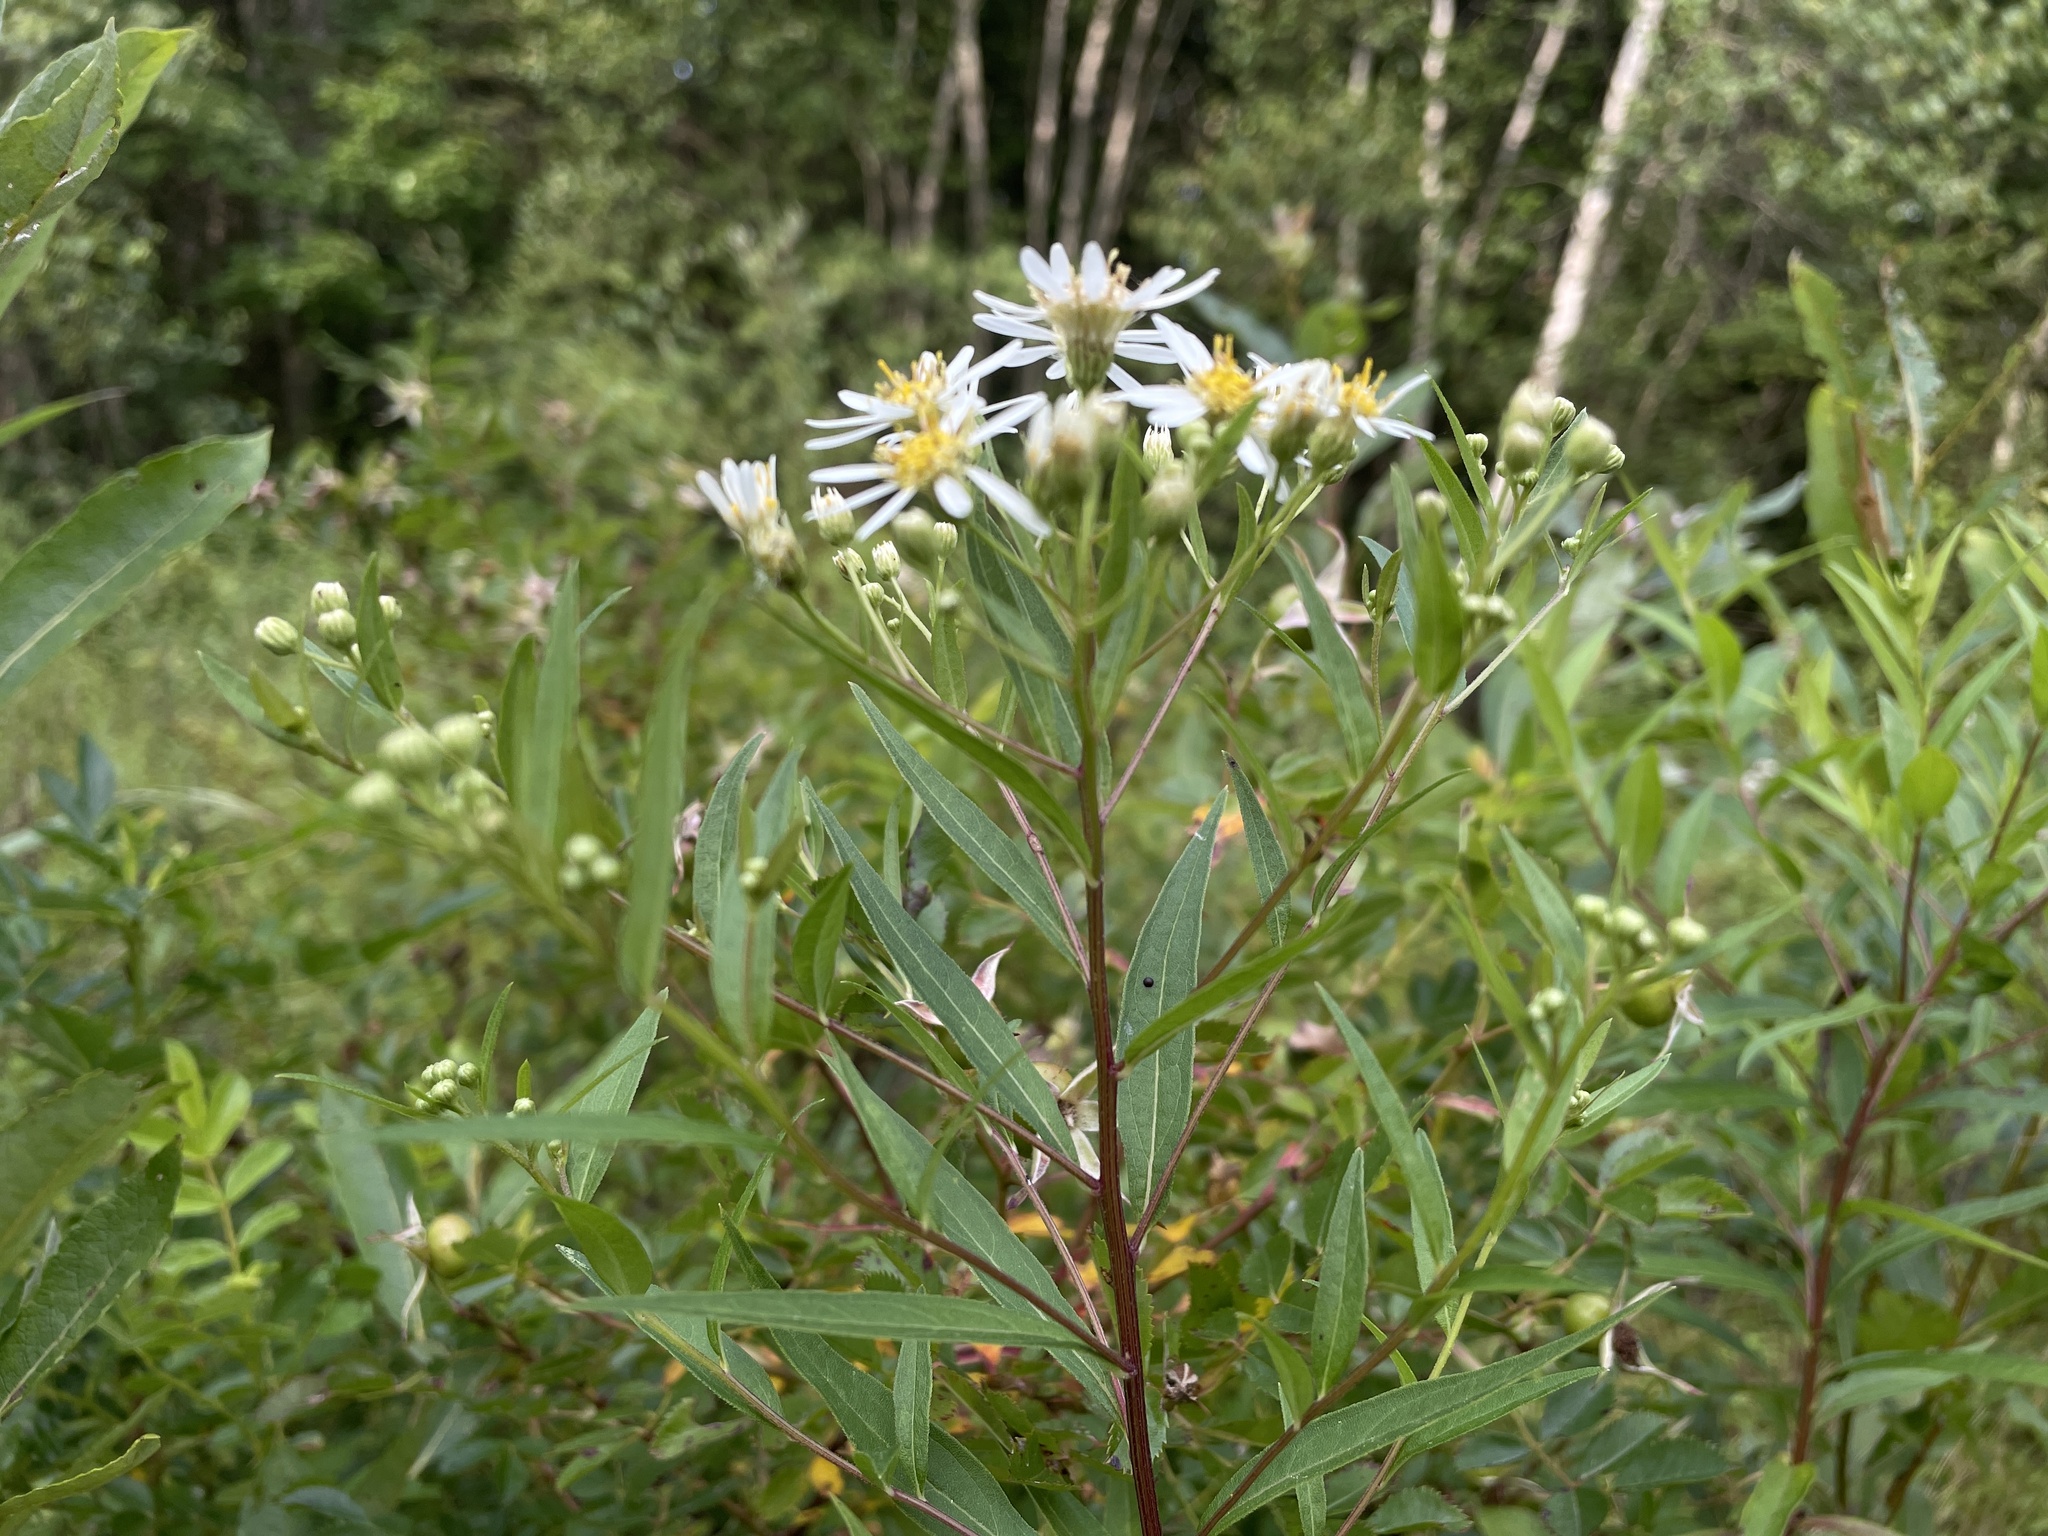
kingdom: Plantae
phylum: Tracheophyta
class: Magnoliopsida
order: Asterales
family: Asteraceae
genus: Doellingeria
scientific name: Doellingeria umbellata
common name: Flat-top white aster
